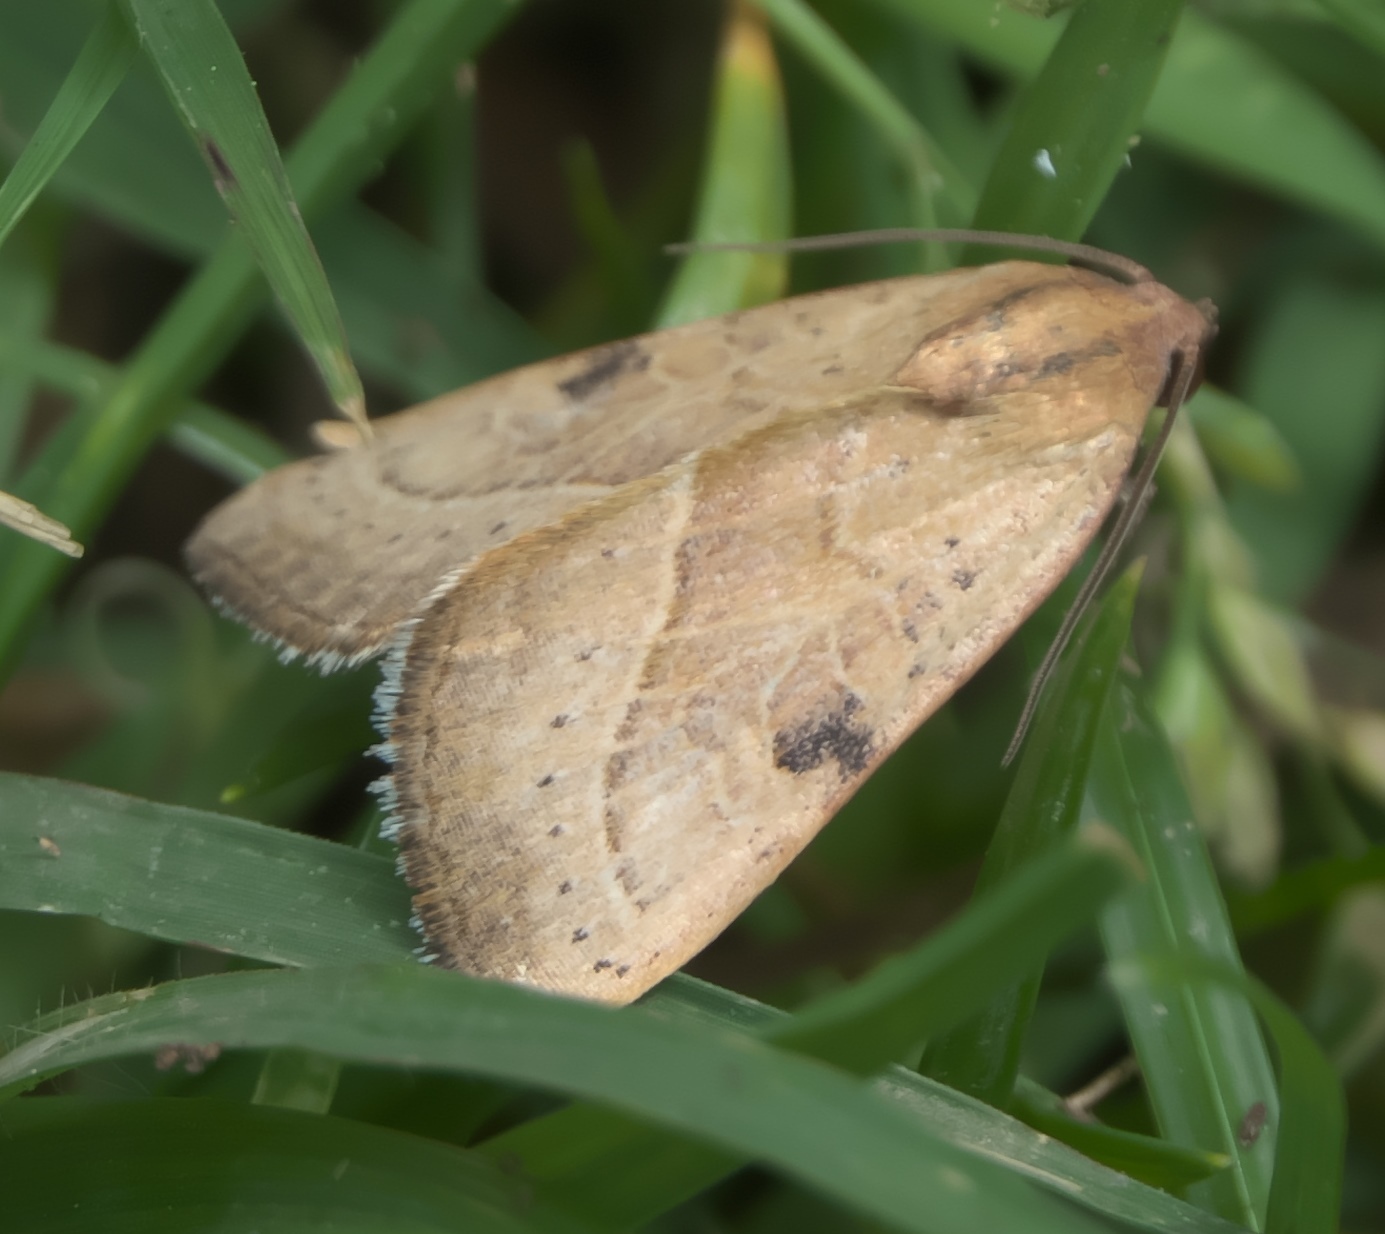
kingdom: Animalia
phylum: Arthropoda
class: Insecta
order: Lepidoptera
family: Noctuidae
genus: Galgula
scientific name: Galgula partita
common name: Wedgeling
